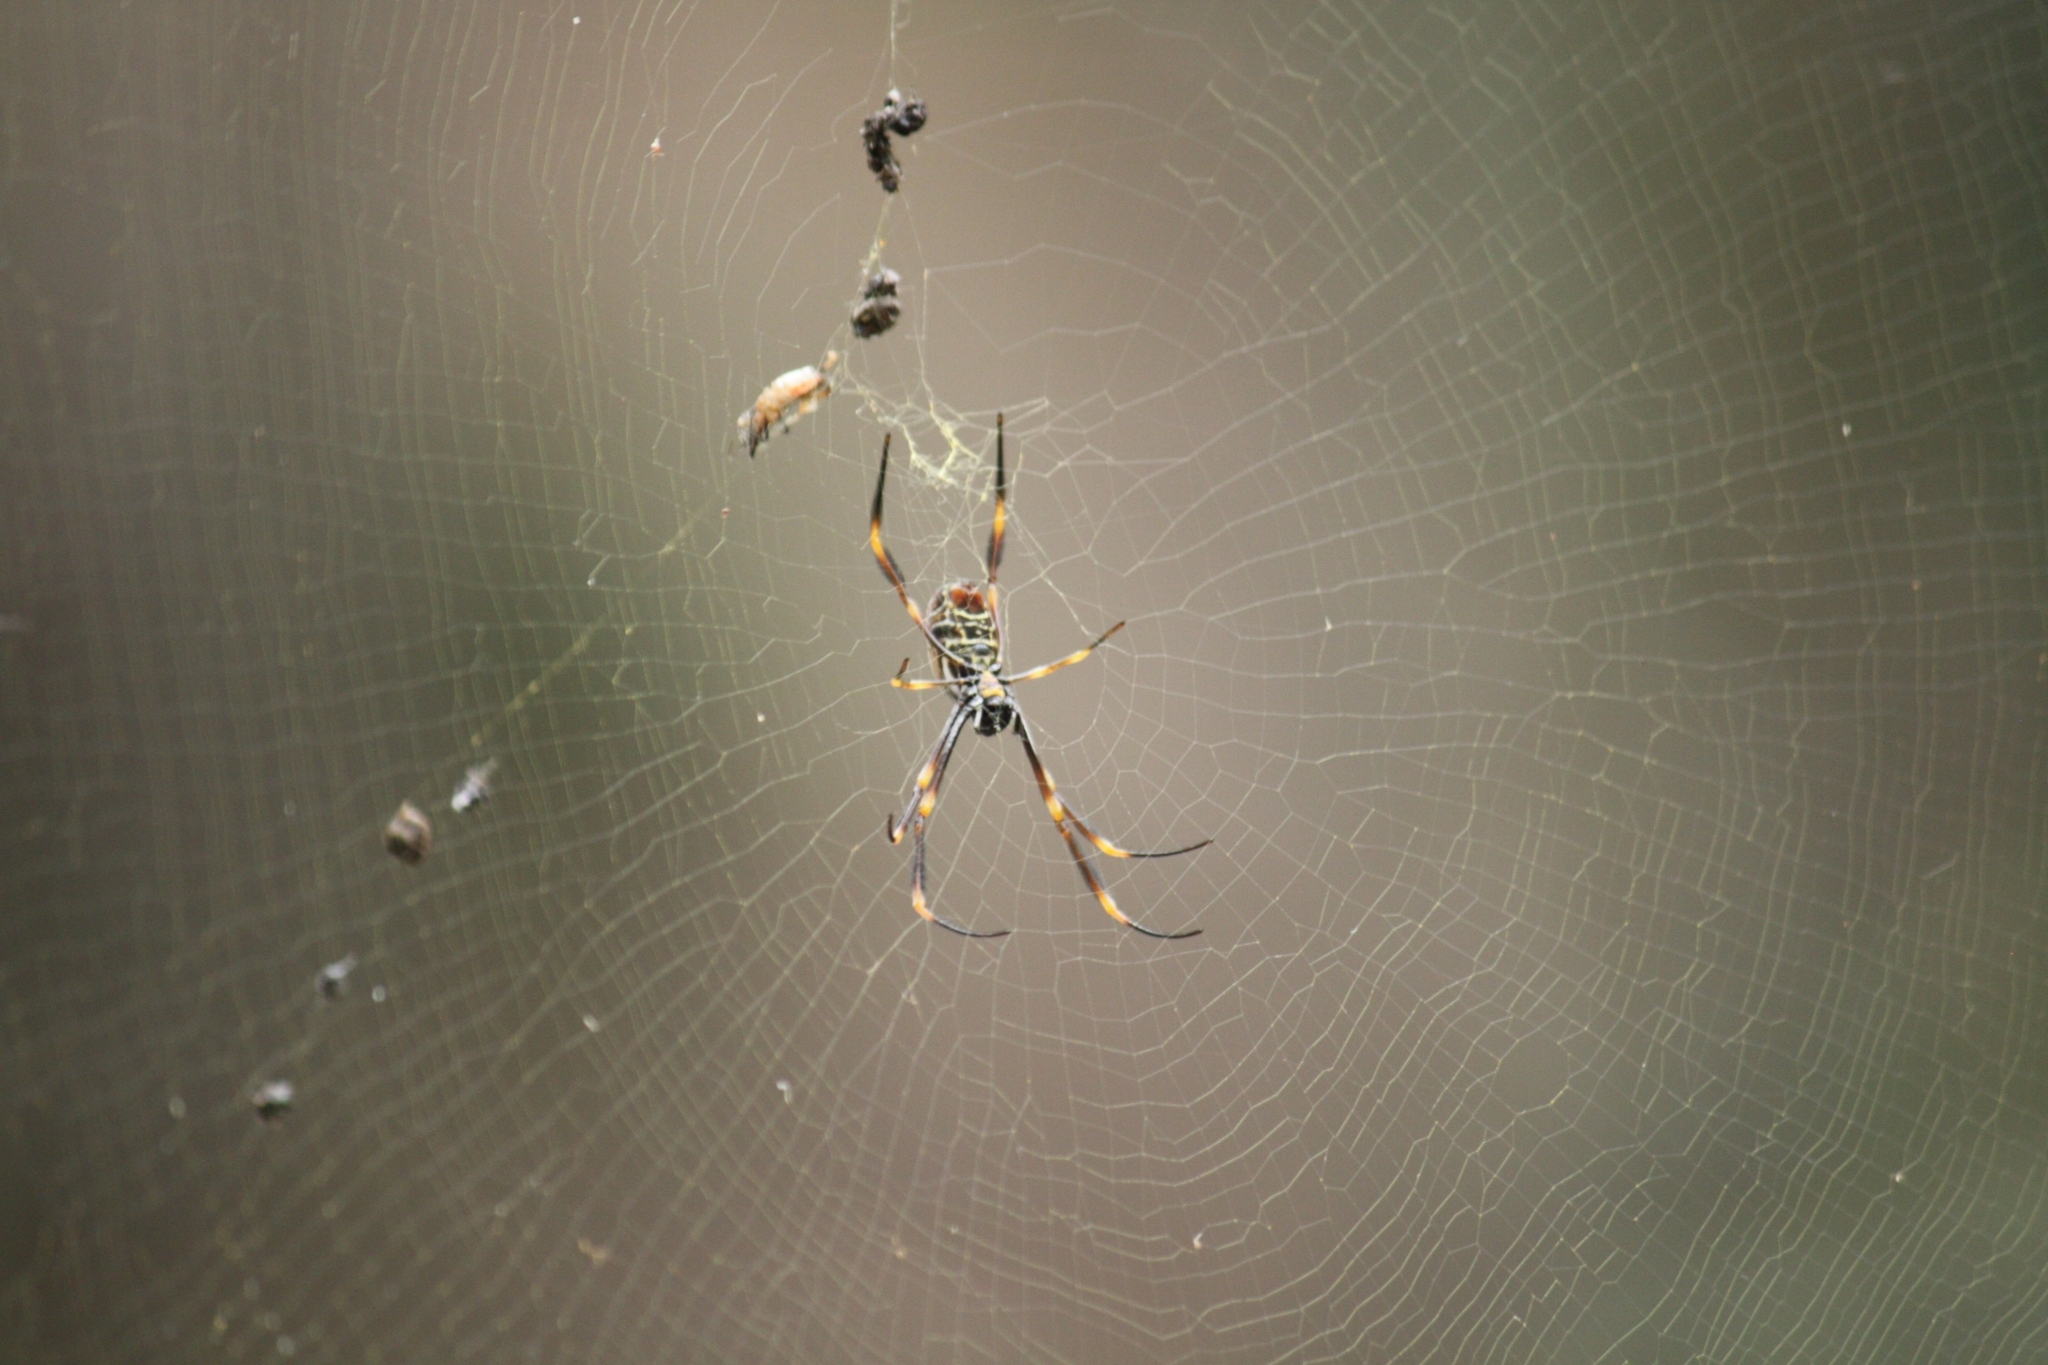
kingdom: Animalia
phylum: Arthropoda
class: Arachnida
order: Araneae
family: Araneidae
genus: Trichonephila
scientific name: Trichonephila plumipes
